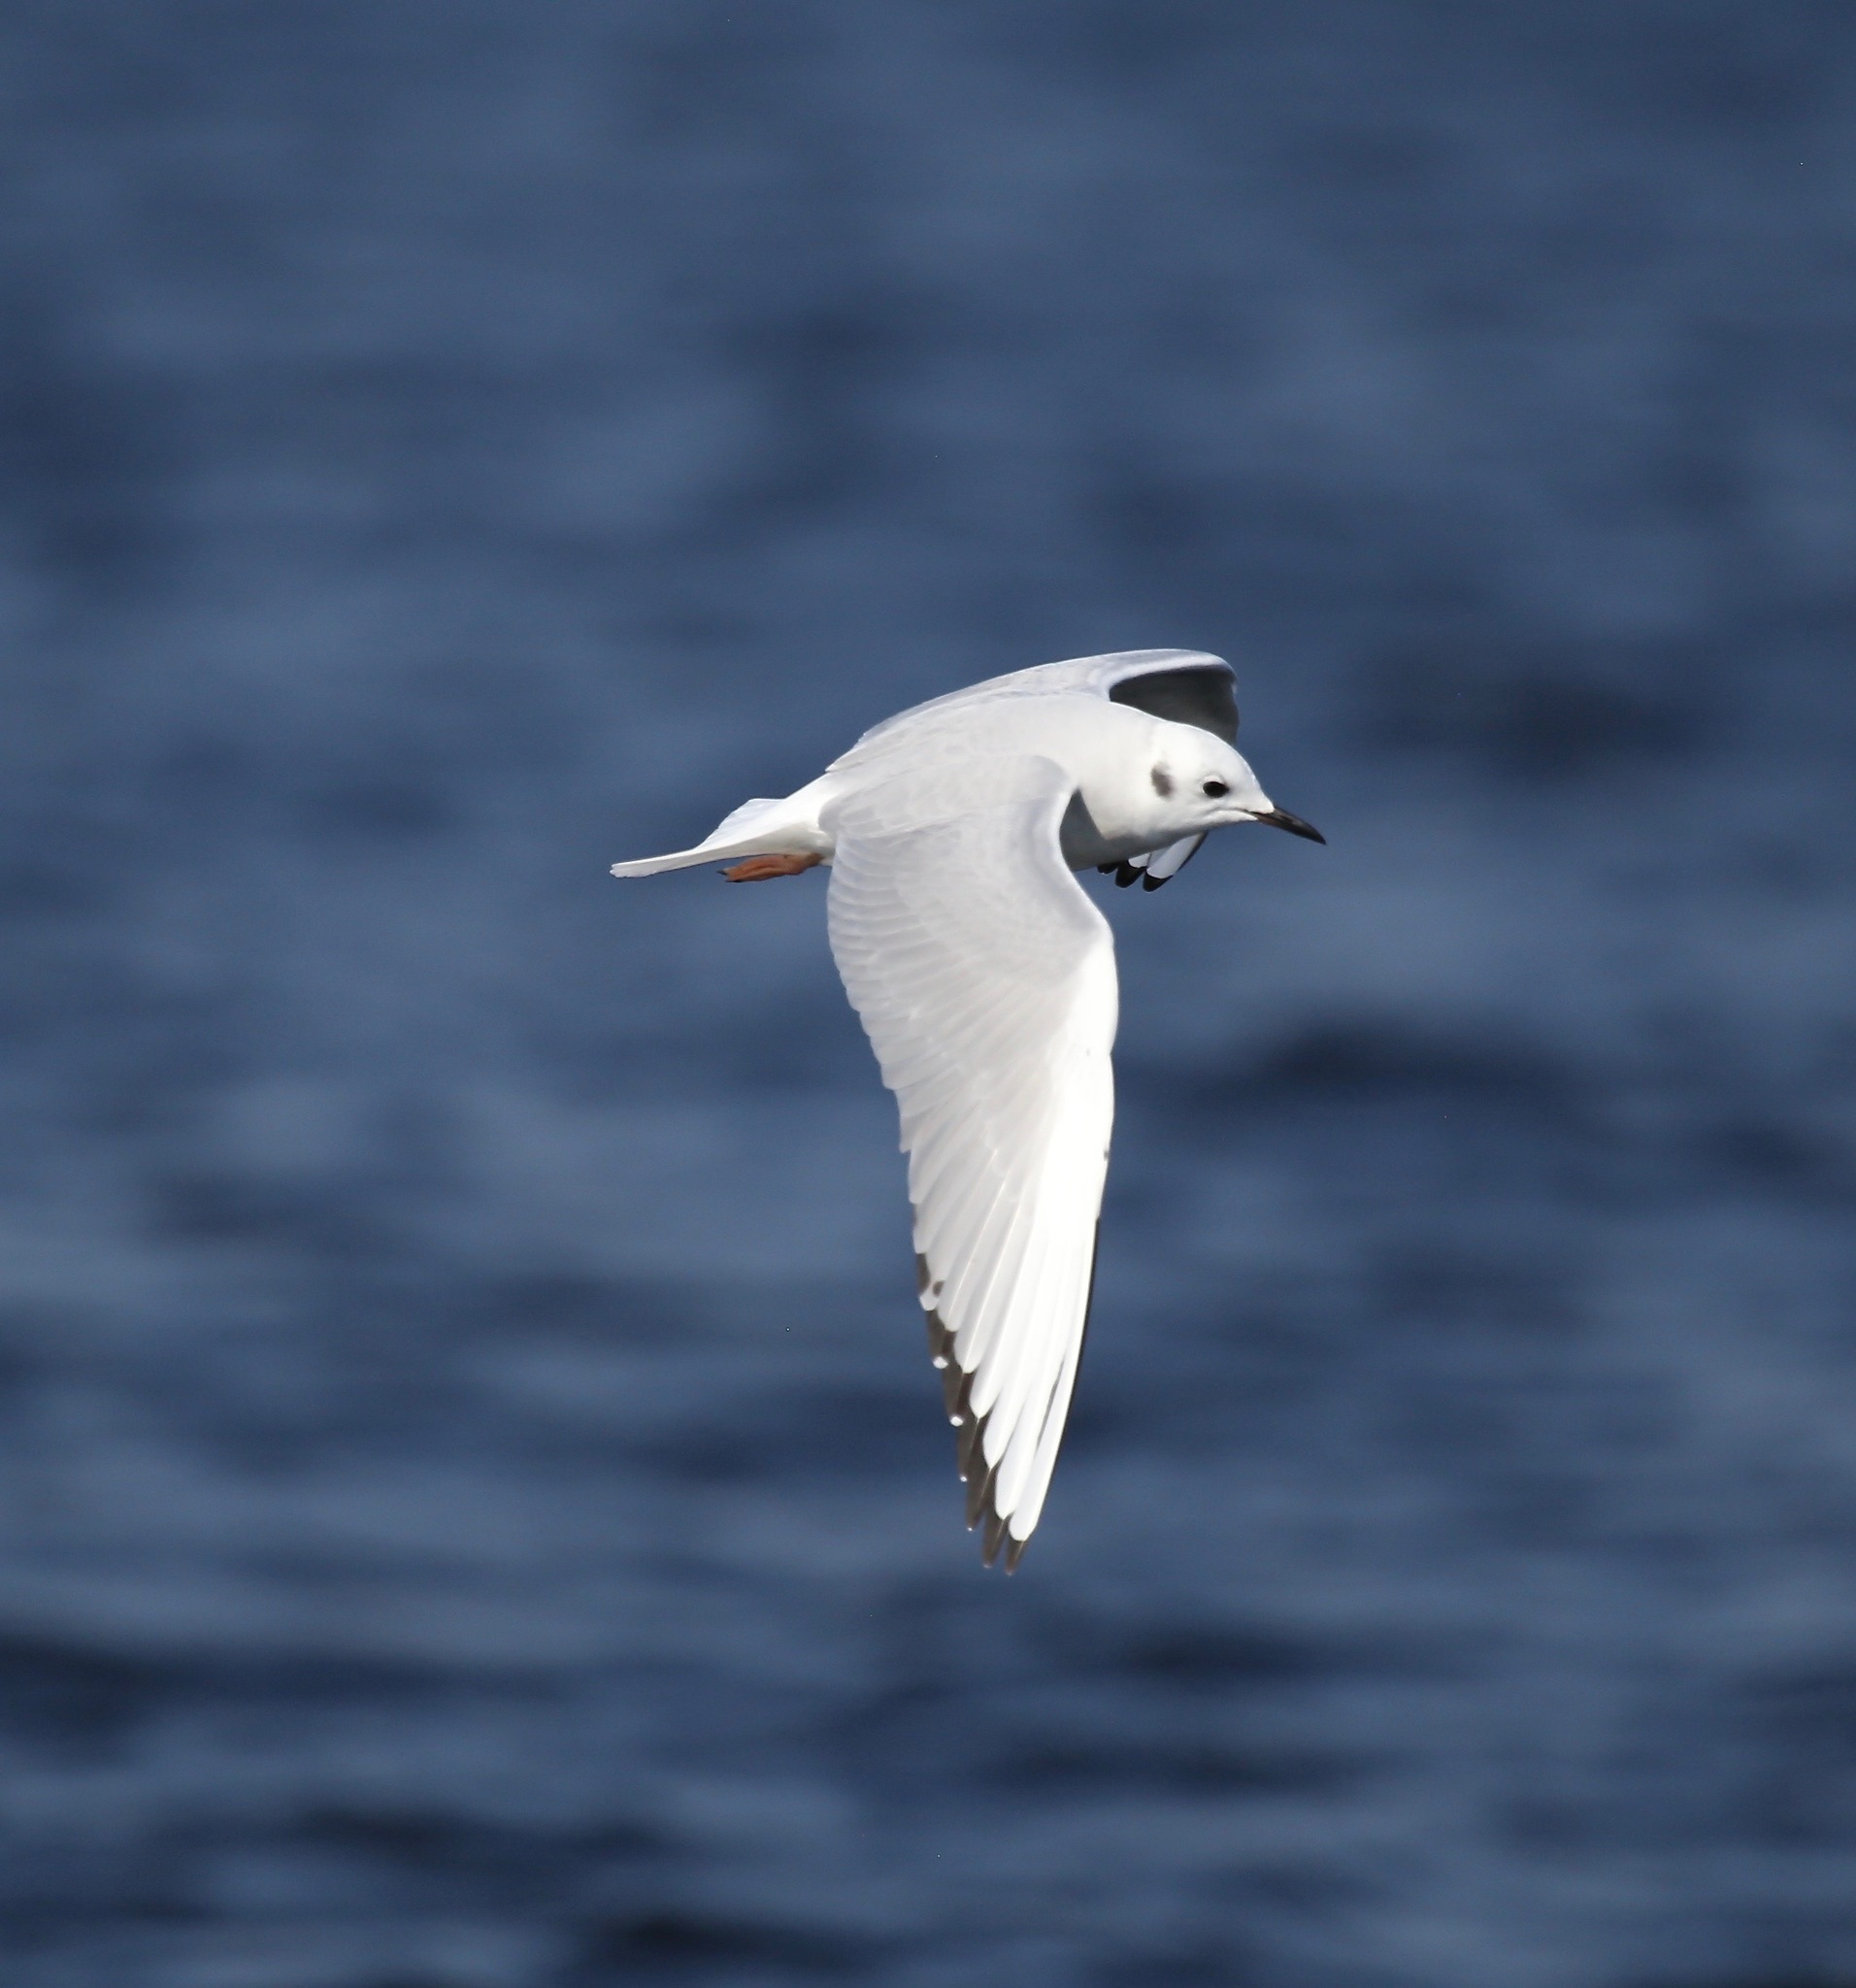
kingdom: Animalia
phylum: Chordata
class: Aves
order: Charadriiformes
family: Laridae
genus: Chroicocephalus
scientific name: Chroicocephalus philadelphia
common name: Bonaparte's gull
